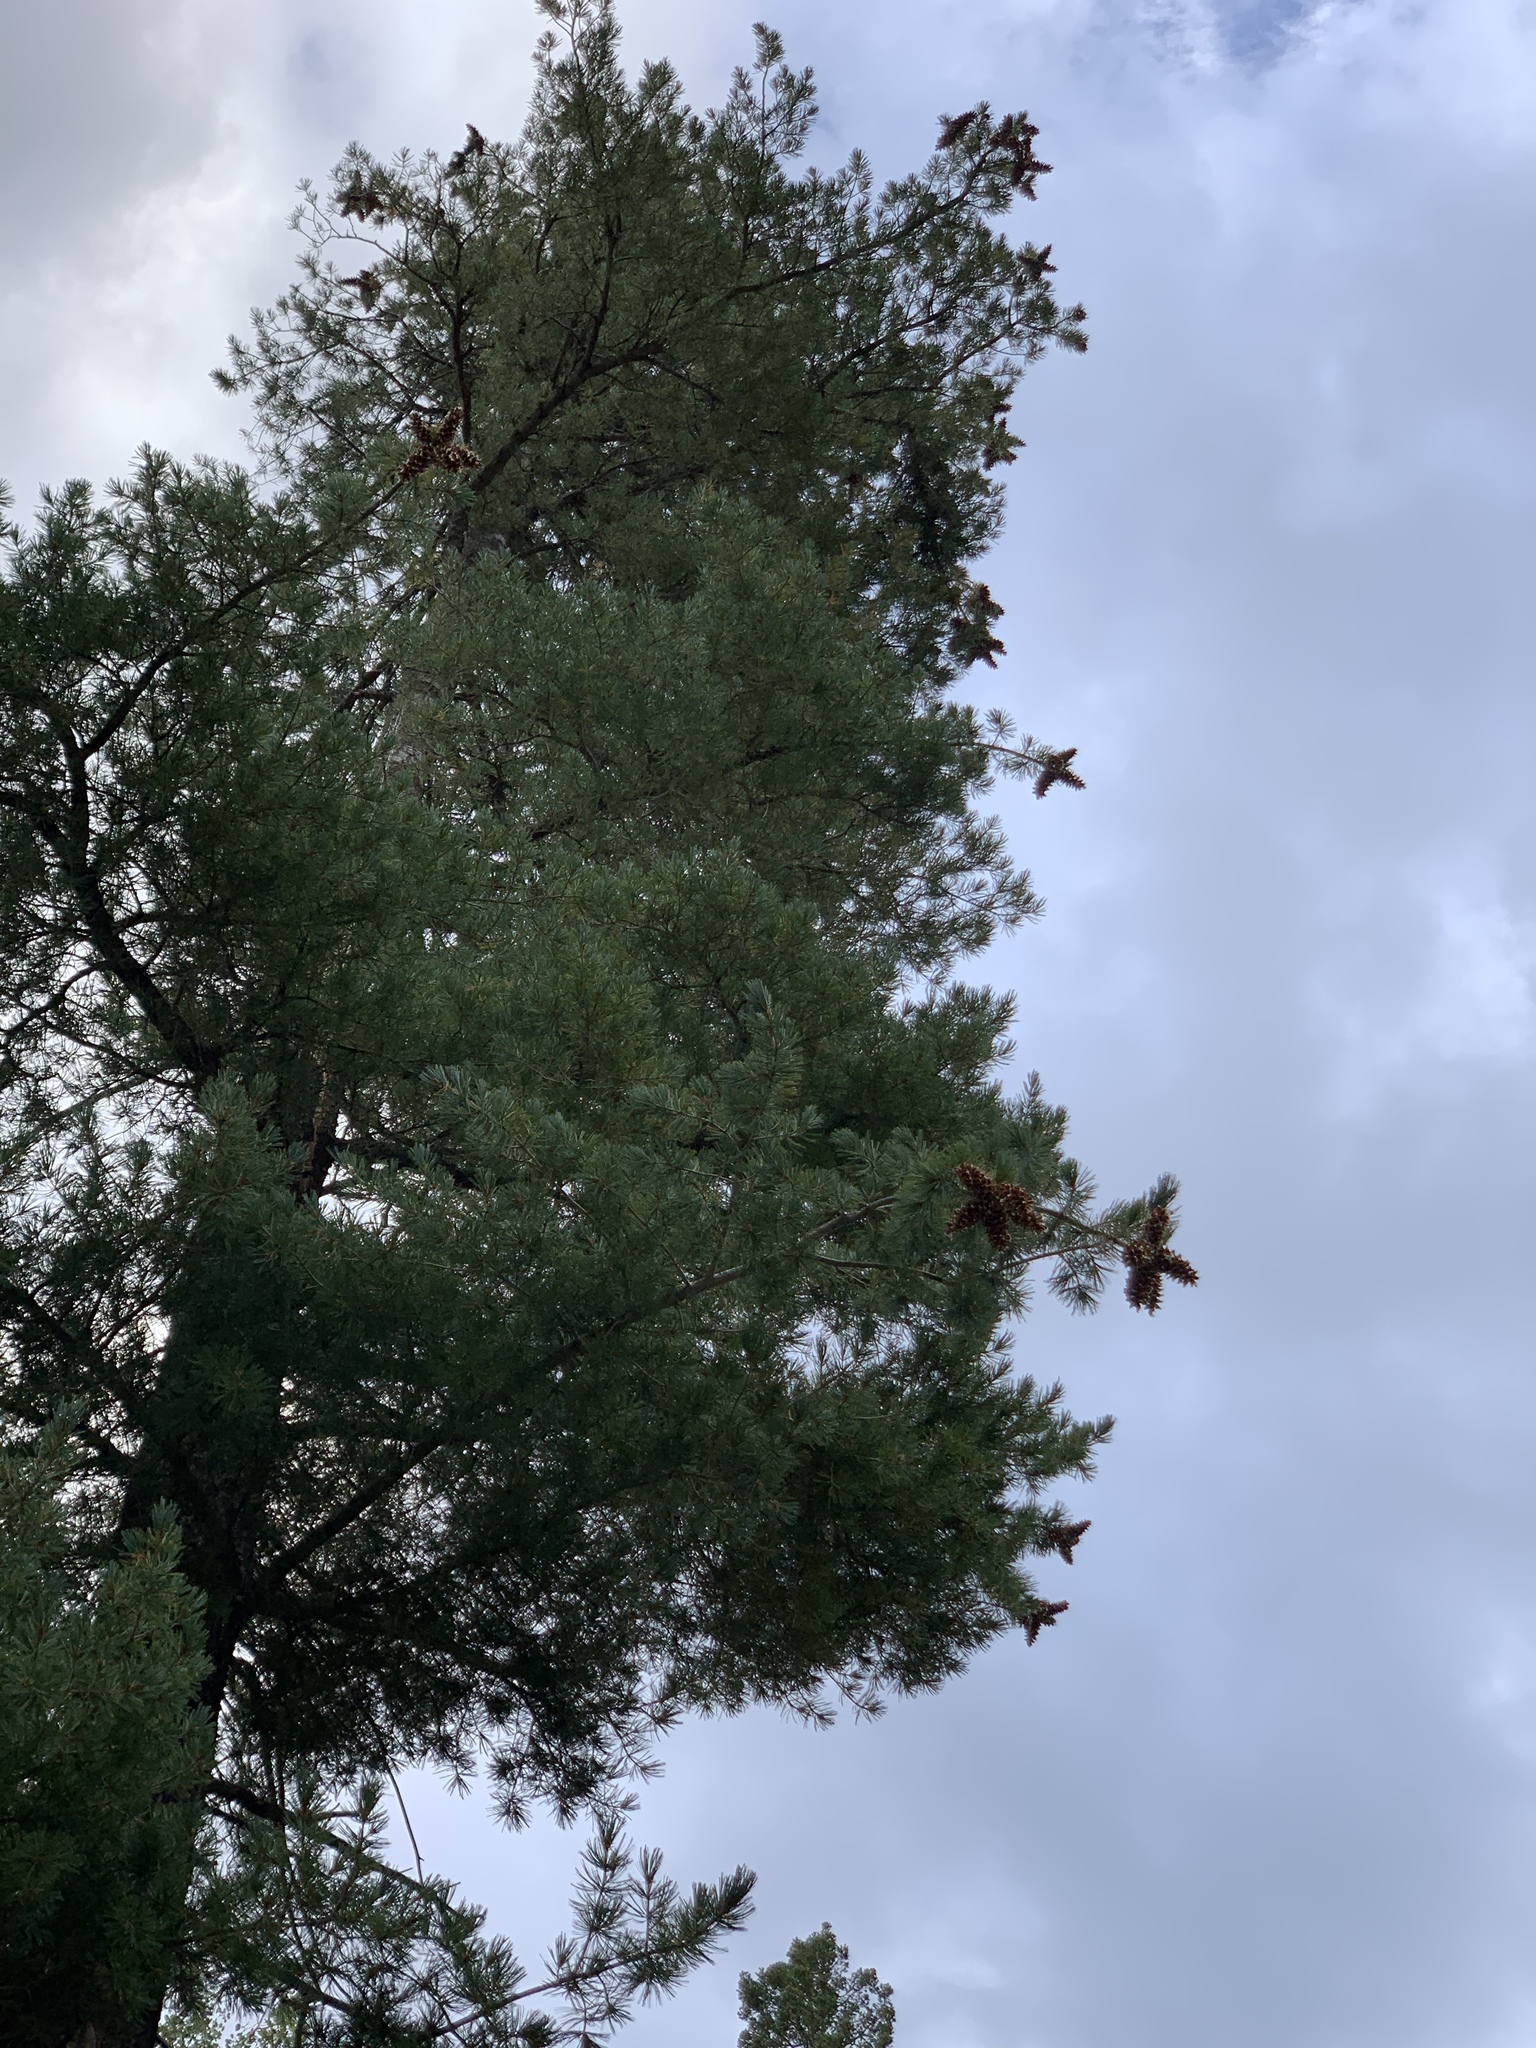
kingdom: Plantae
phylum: Tracheophyta
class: Pinopsida
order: Pinales
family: Pinaceae
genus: Pinus
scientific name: Pinus strobiformis
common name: Southwestern white pine
